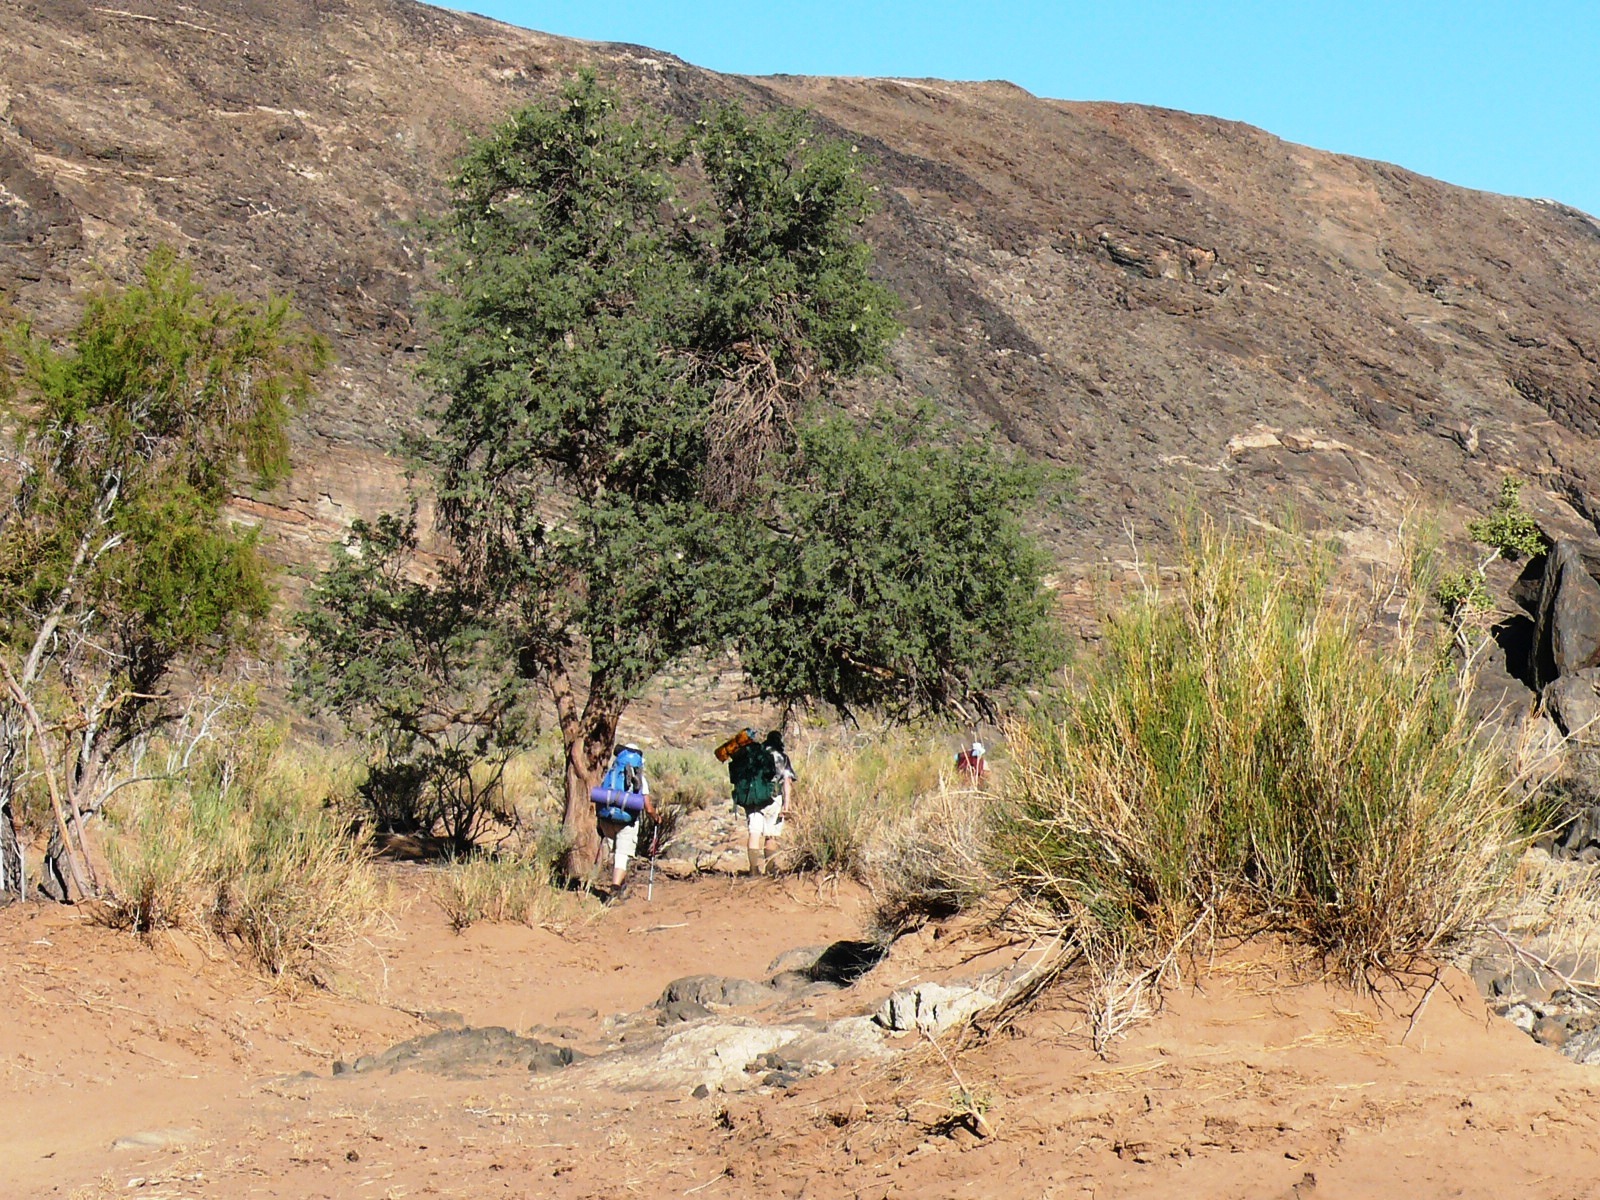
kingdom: Plantae
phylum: Tracheophyta
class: Magnoliopsida
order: Fabales
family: Fabaceae
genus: Vachellia
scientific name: Vachellia erioloba
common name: Camel thorn
